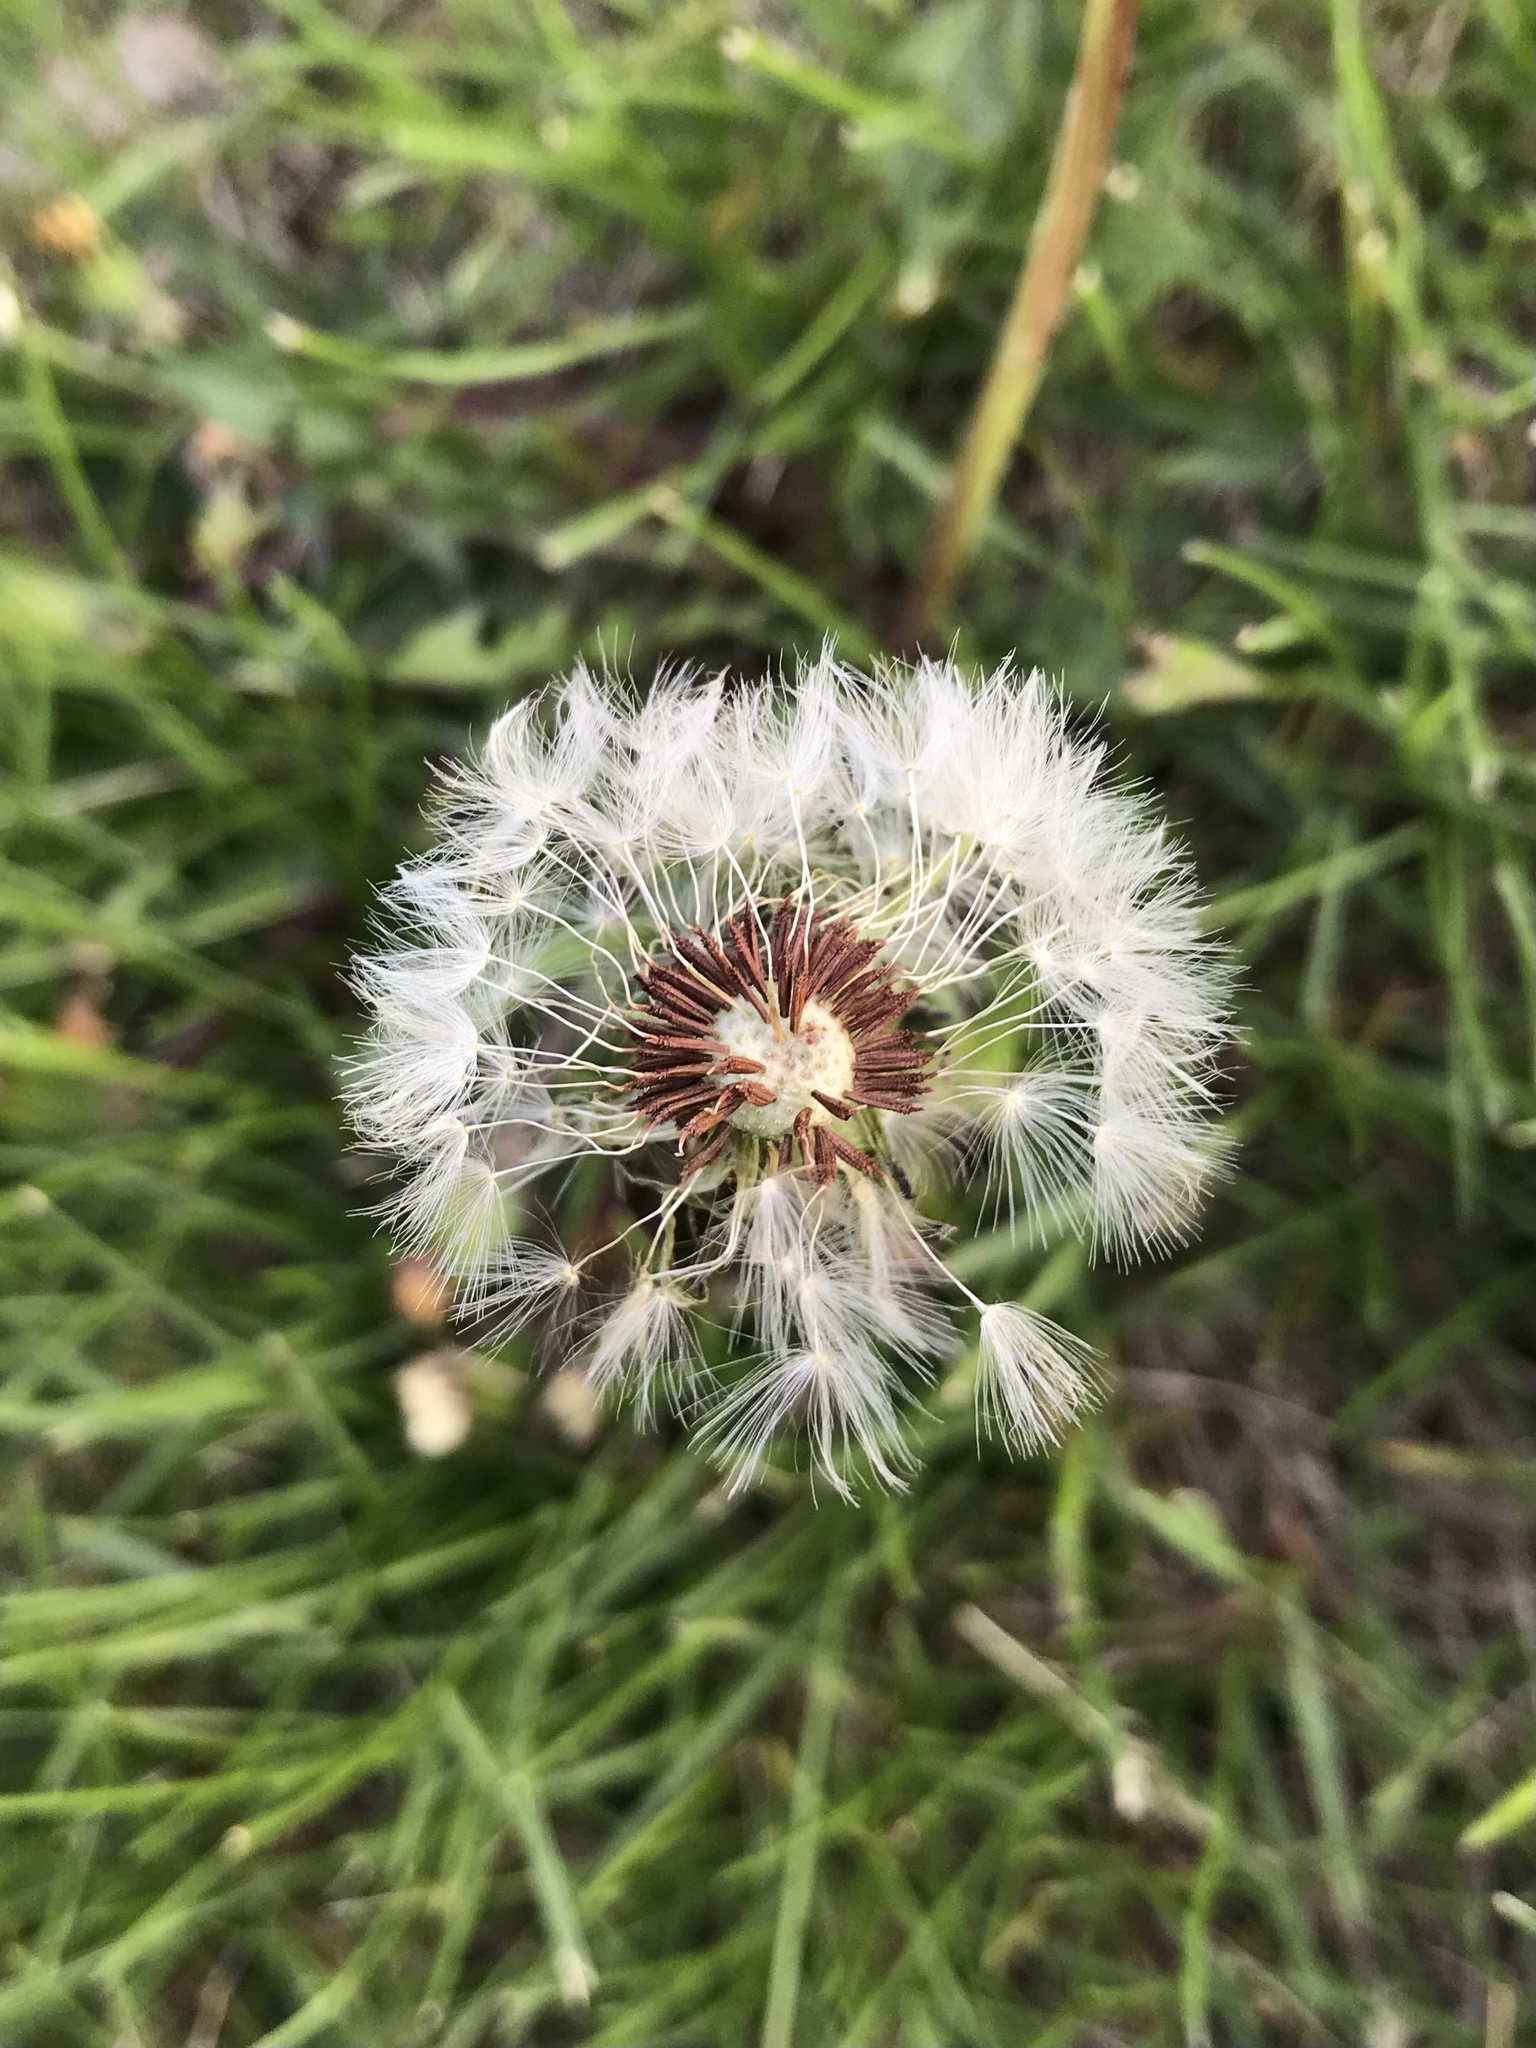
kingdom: Plantae
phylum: Tracheophyta
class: Magnoliopsida
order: Asterales
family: Asteraceae
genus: Taraxacum
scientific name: Taraxacum erythrospermum
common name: Rock dandelion
